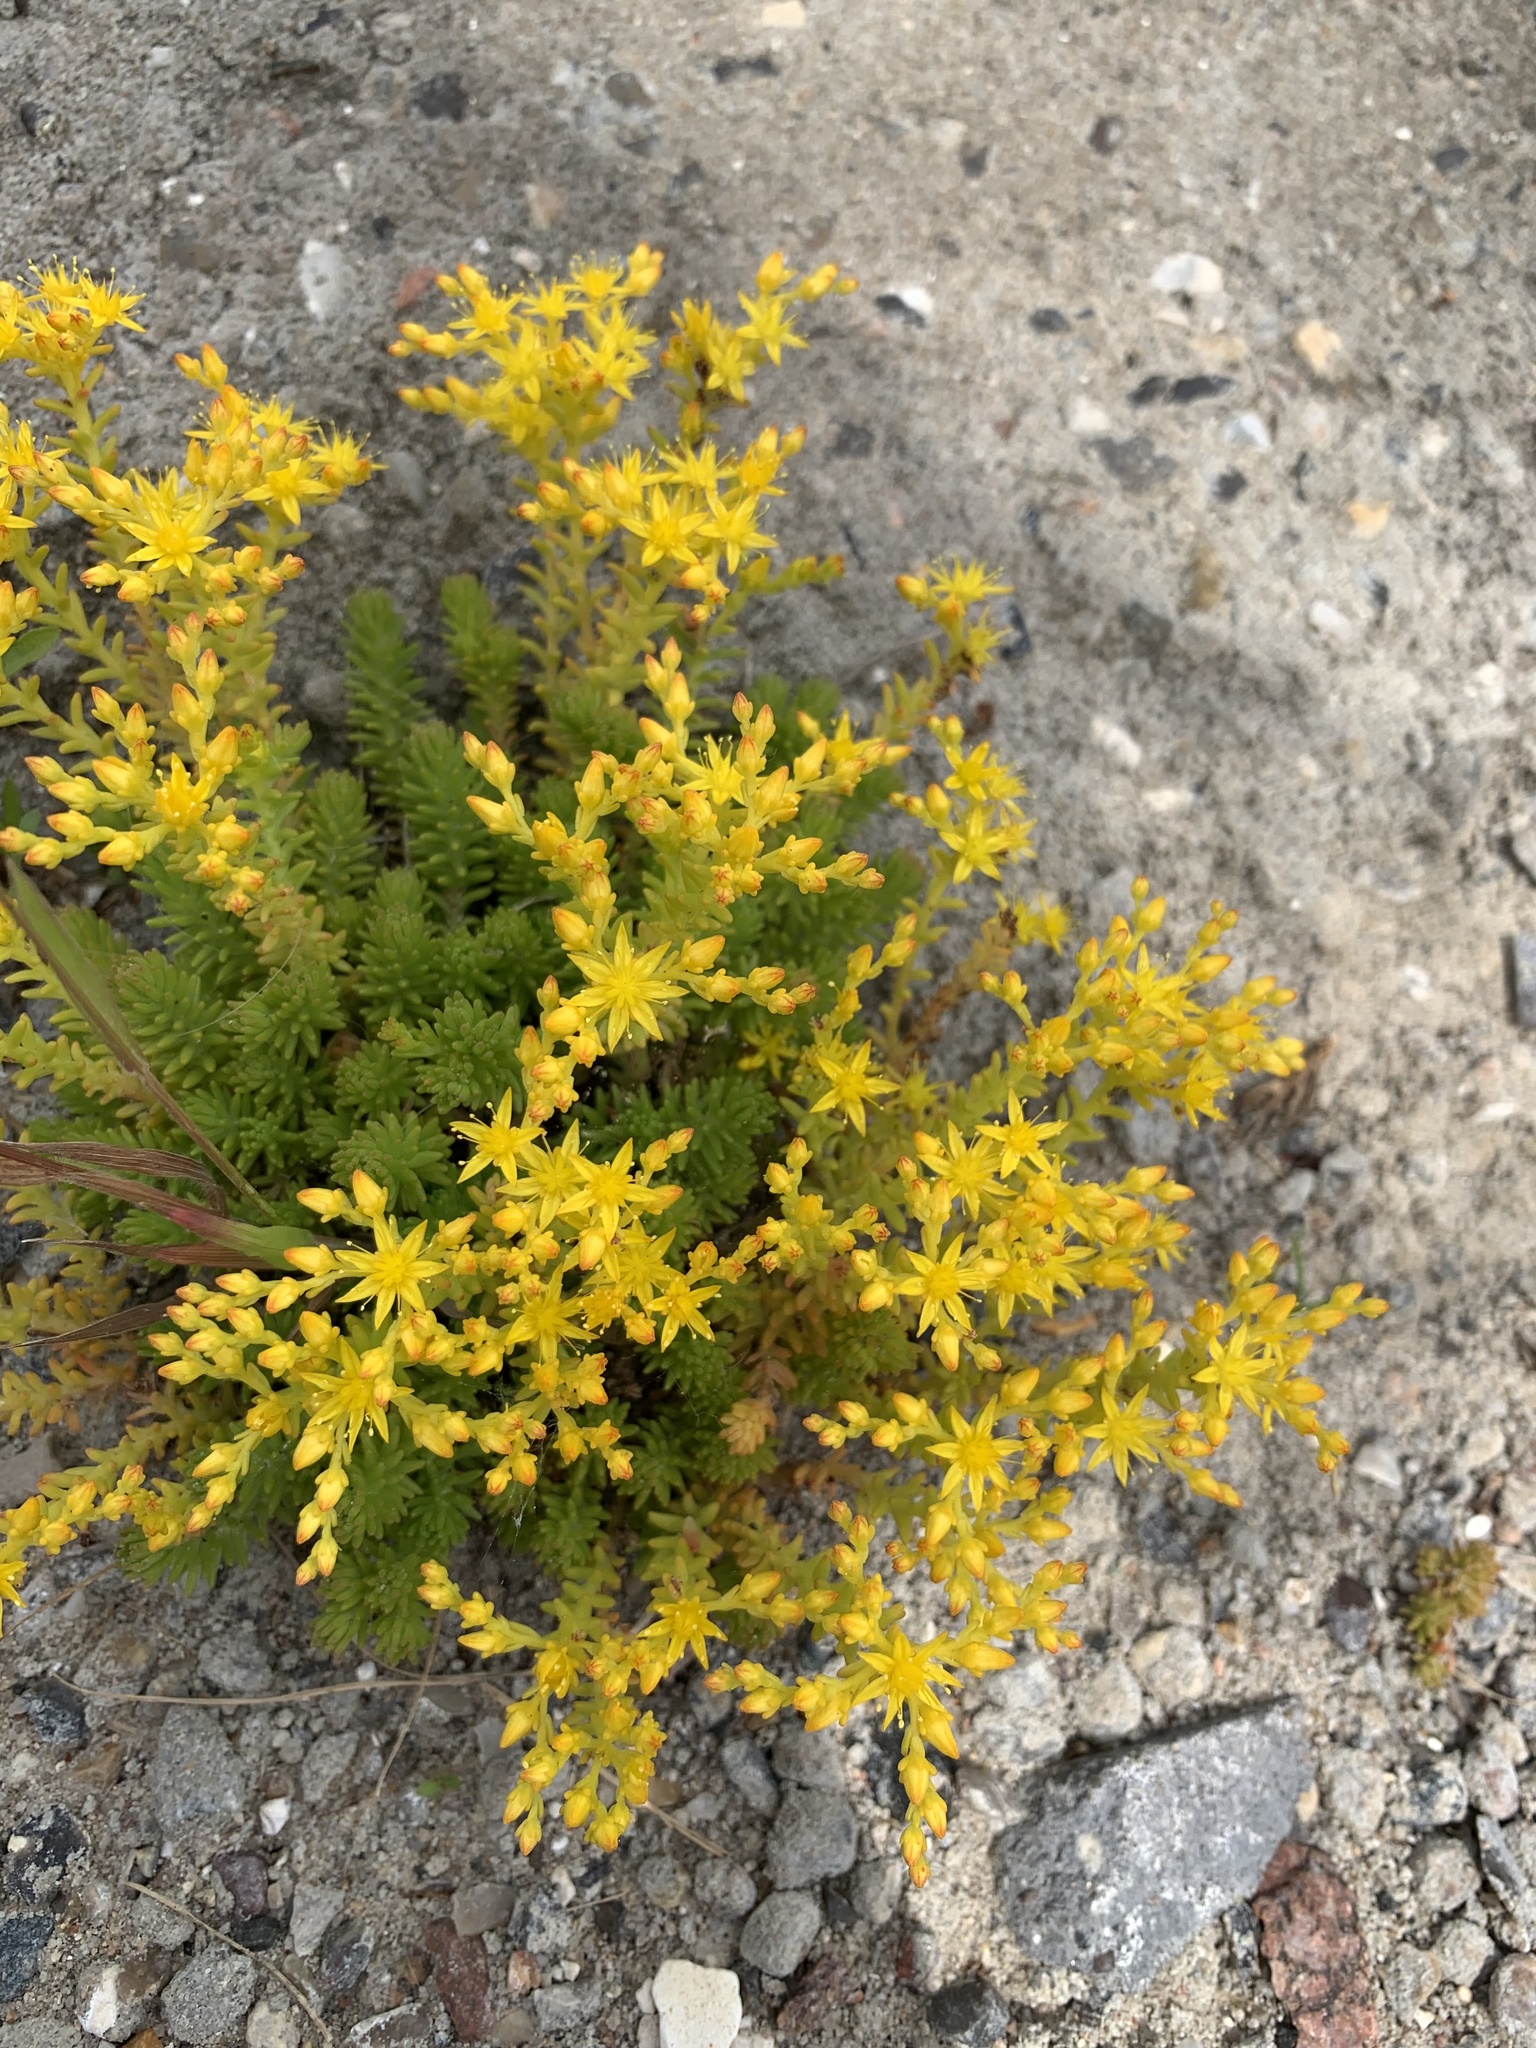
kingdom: Plantae
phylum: Tracheophyta
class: Magnoliopsida
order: Saxifragales
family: Crassulaceae
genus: Sedum
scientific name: Sedum sexangulare
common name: Tasteless stonecrop
